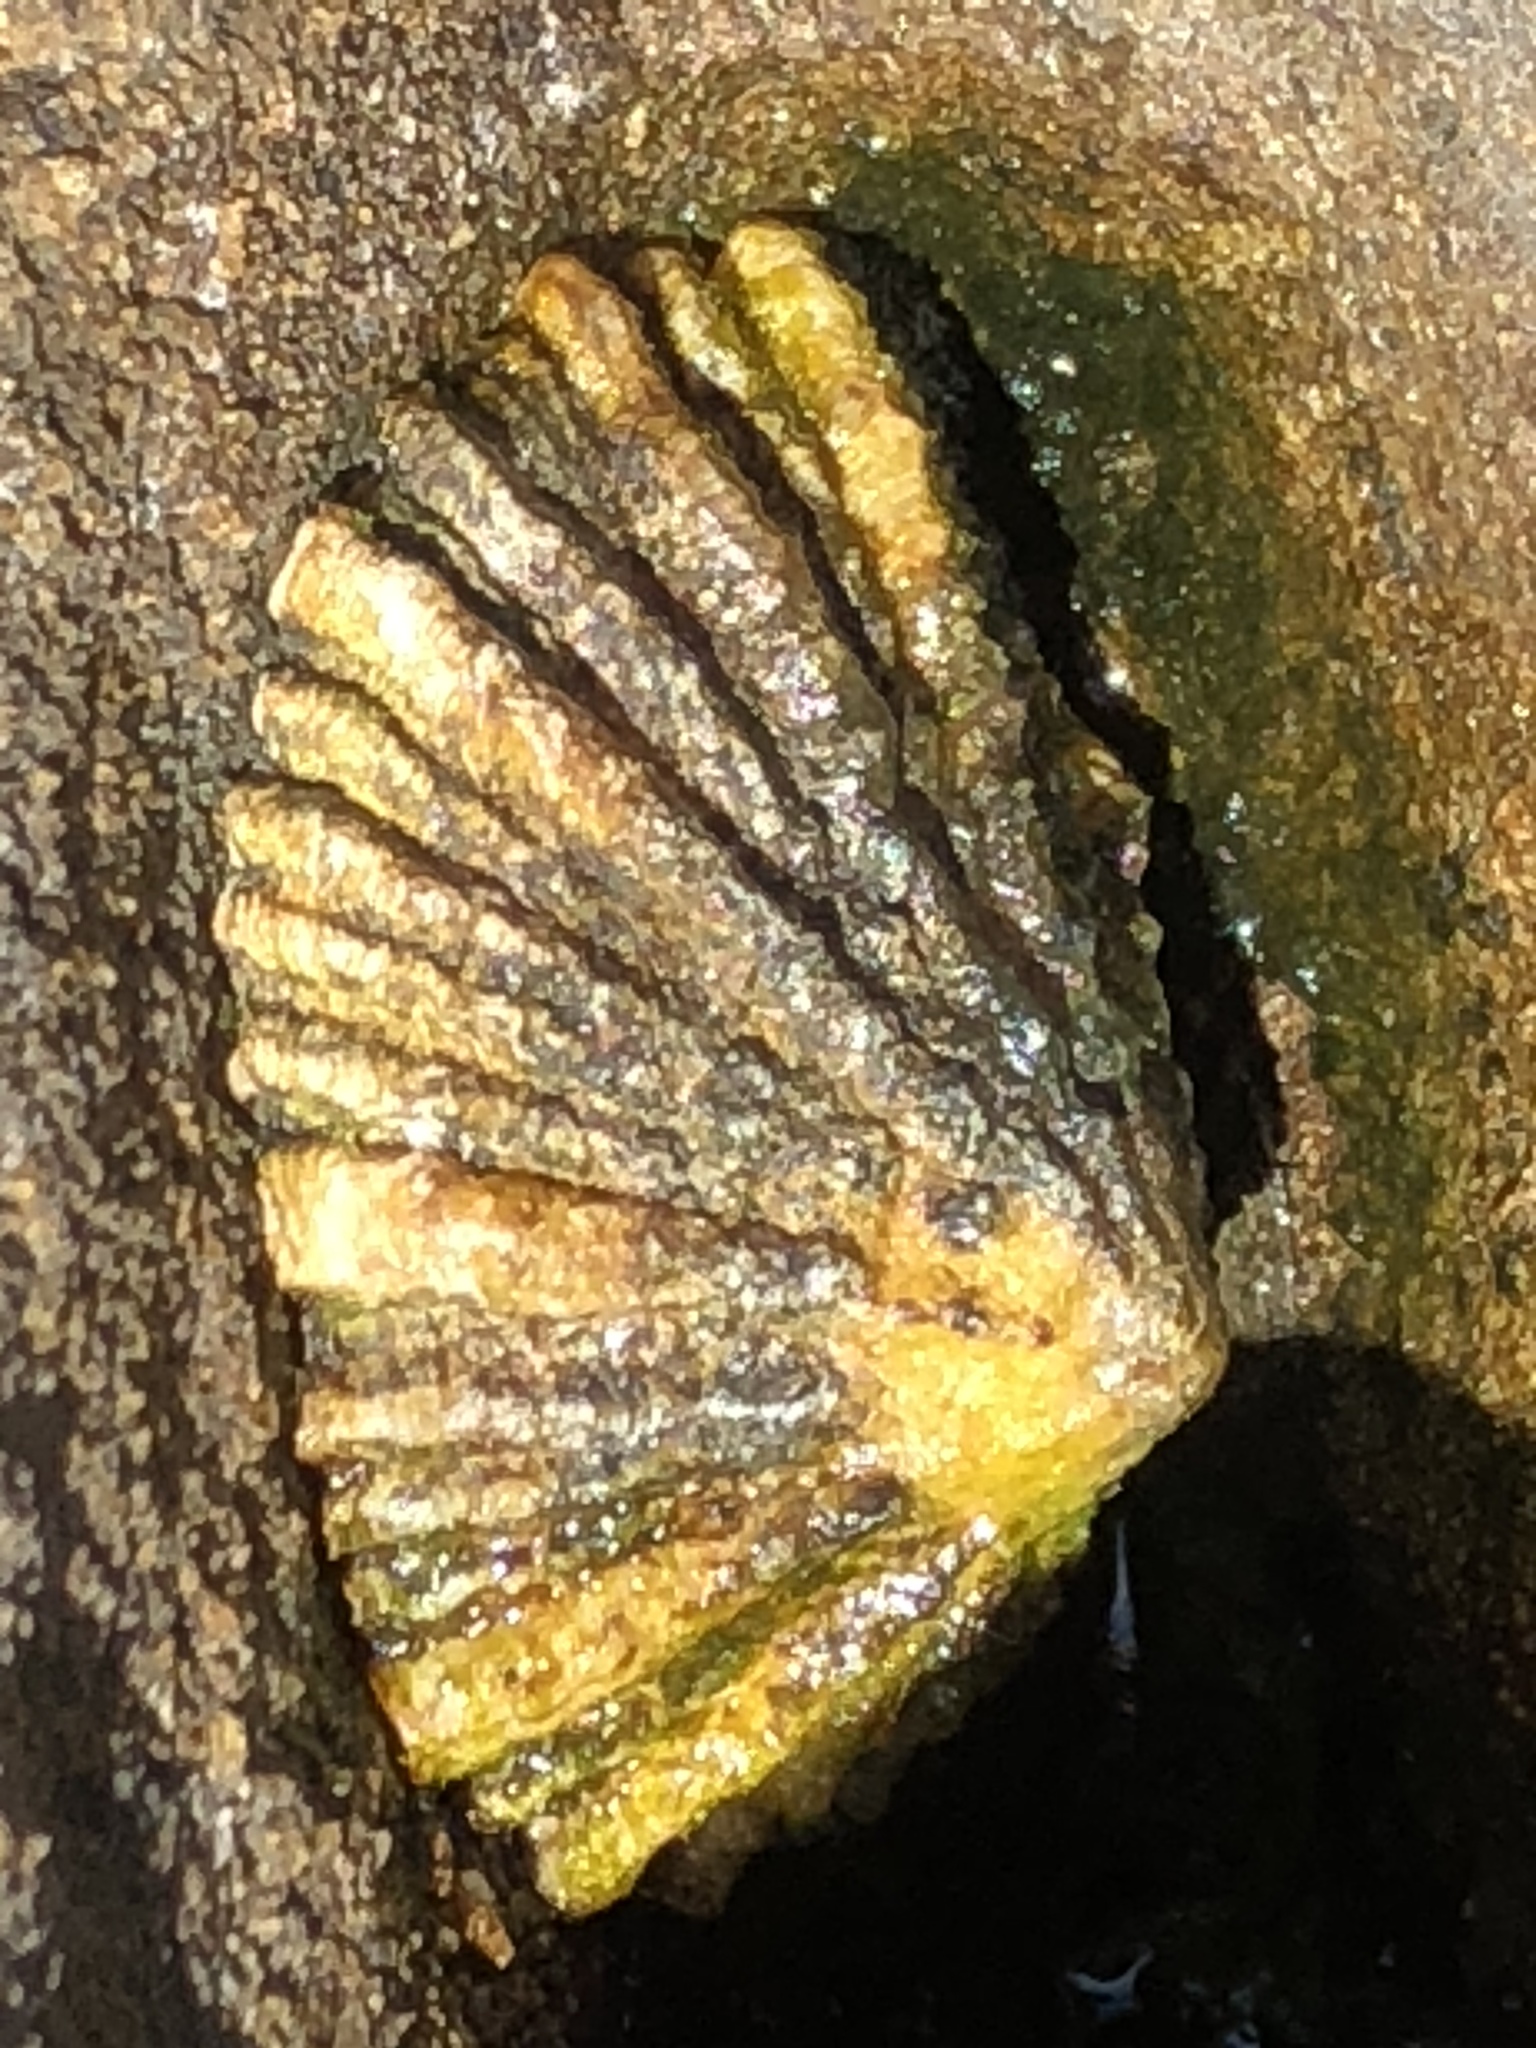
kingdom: Animalia
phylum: Mollusca
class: Gastropoda
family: Lottiidae
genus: Lottia
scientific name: Lottia scabra
